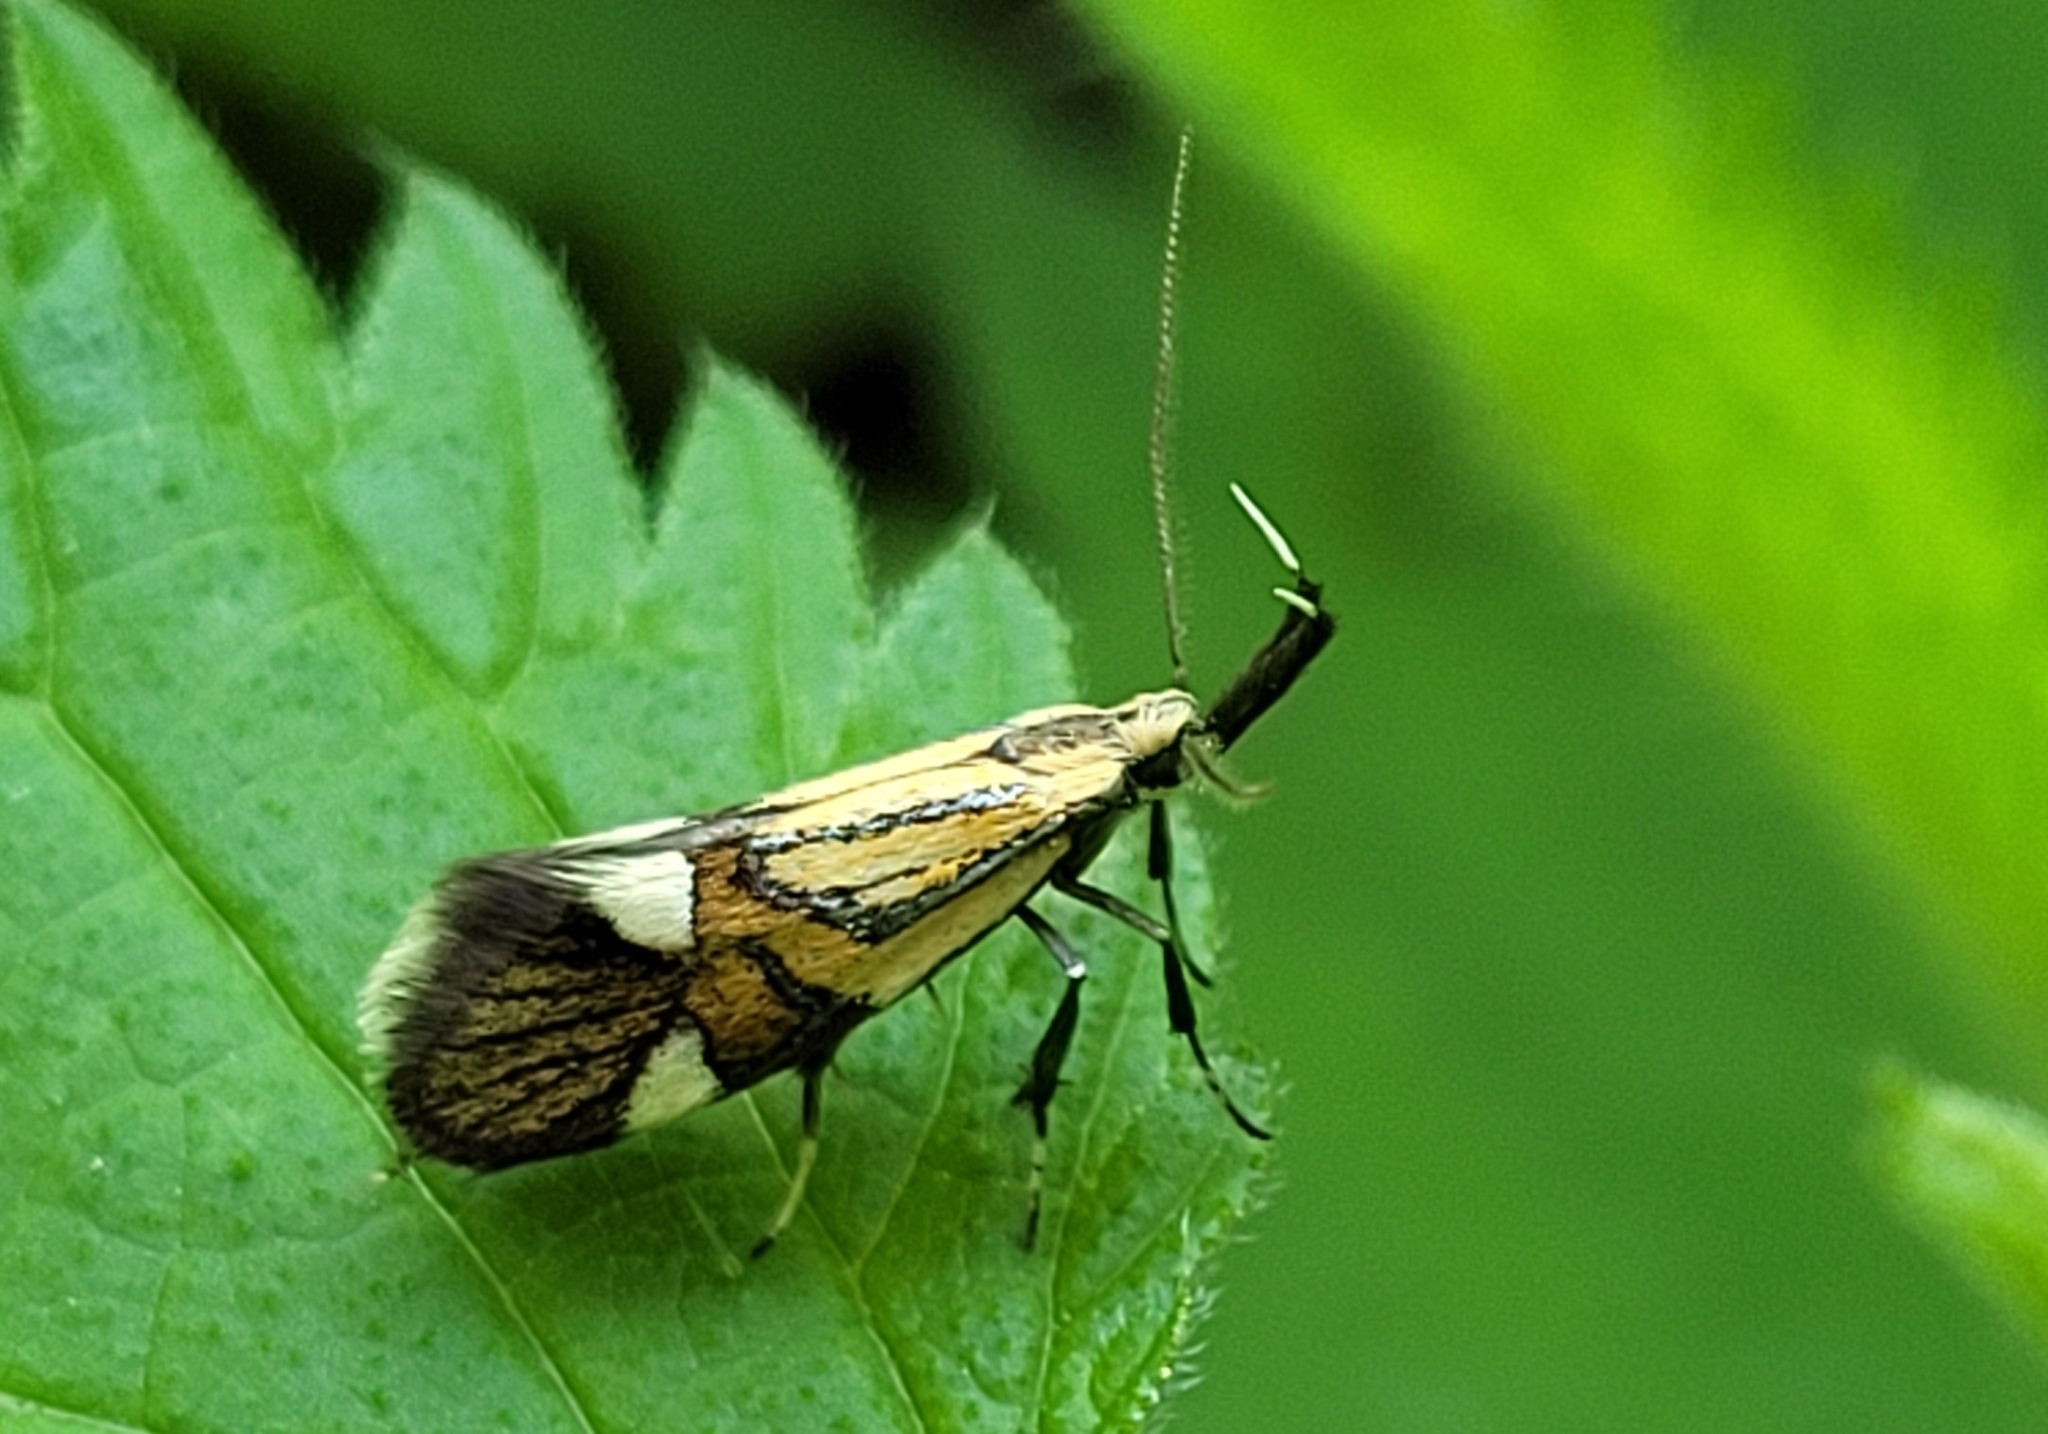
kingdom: Animalia
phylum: Arthropoda
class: Insecta
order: Lepidoptera
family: Oecophoridae
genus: Oecophora
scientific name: Oecophora Alabonia geoffrella
